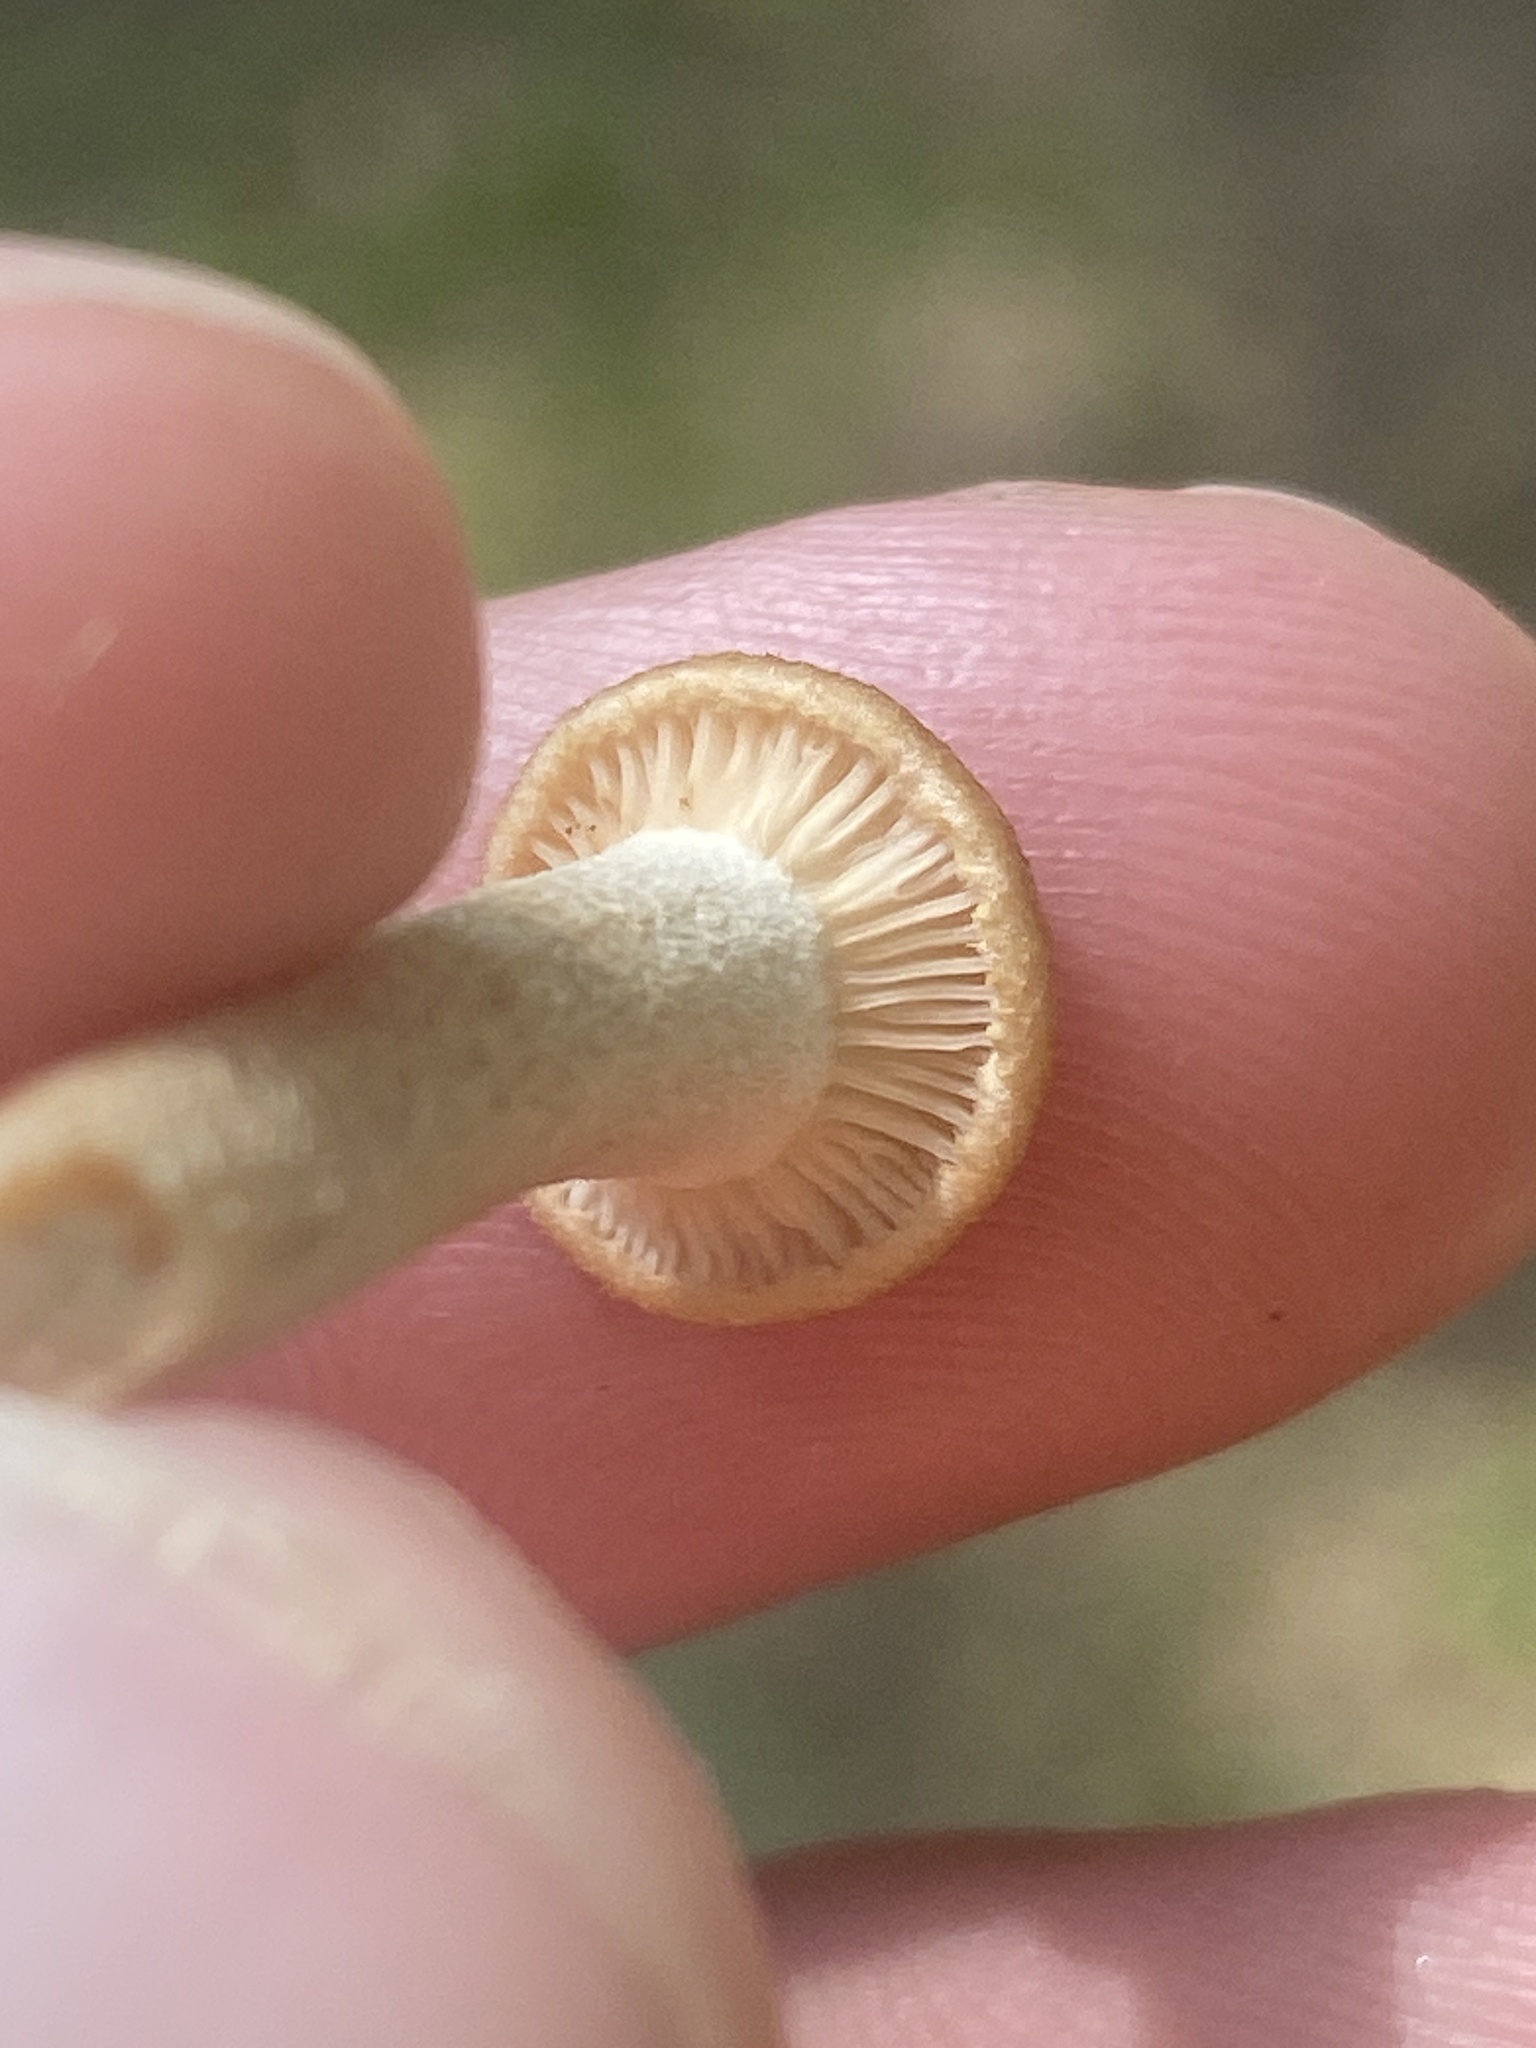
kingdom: Fungi
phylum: Basidiomycota
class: Agaricomycetes
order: Agaricales
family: Physalacriaceae
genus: Desarmillaria
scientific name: Desarmillaria caespitosa
